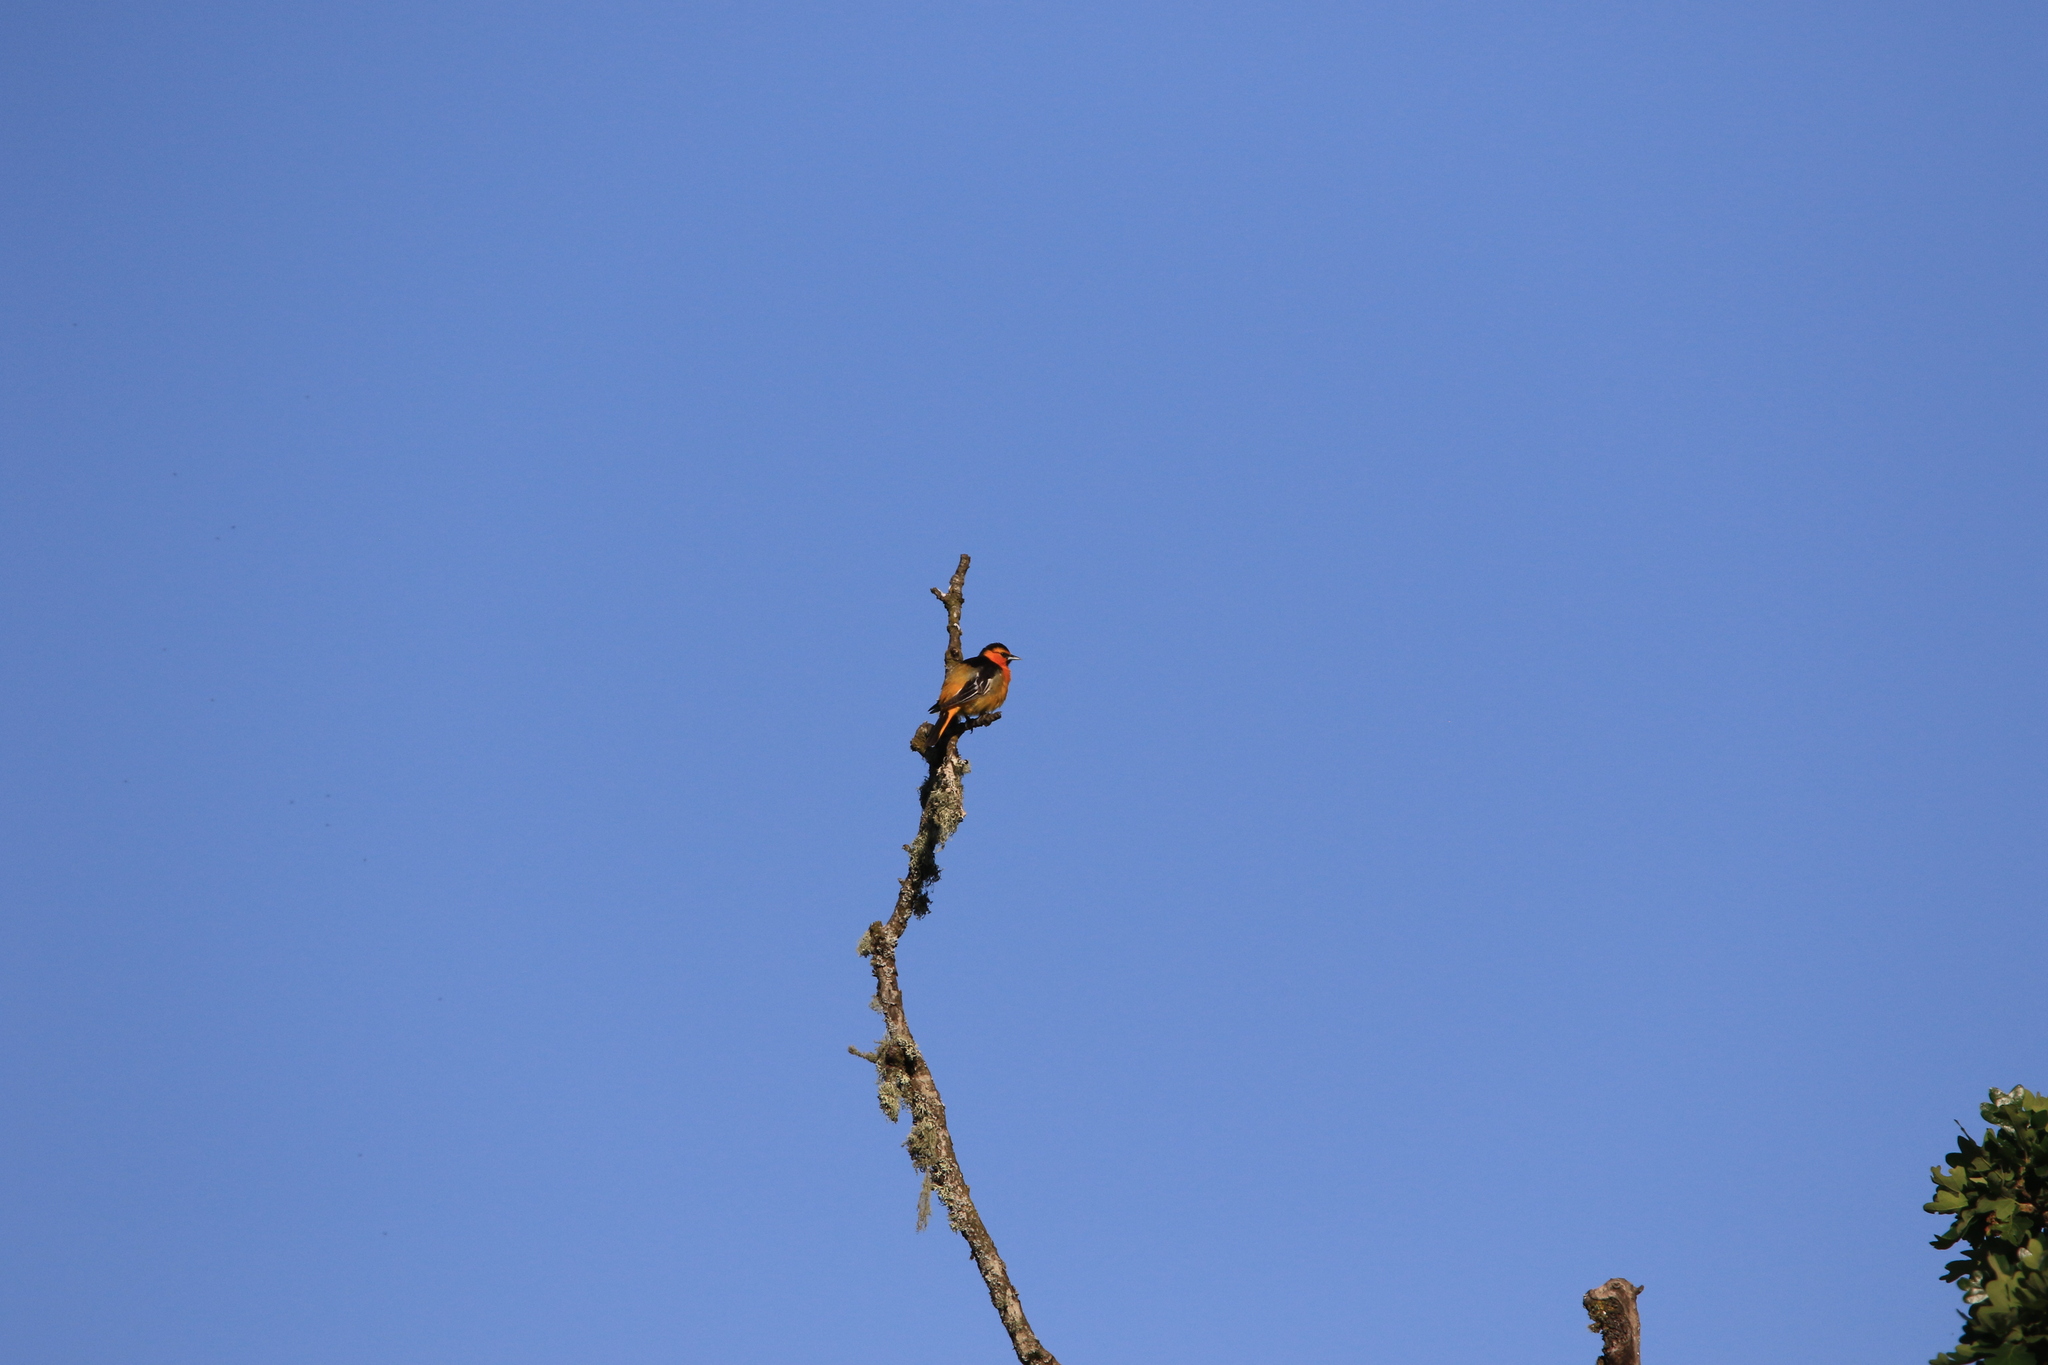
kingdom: Animalia
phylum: Chordata
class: Aves
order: Passeriformes
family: Icteridae
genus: Icterus
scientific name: Icterus bullockii
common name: Bullock's oriole
